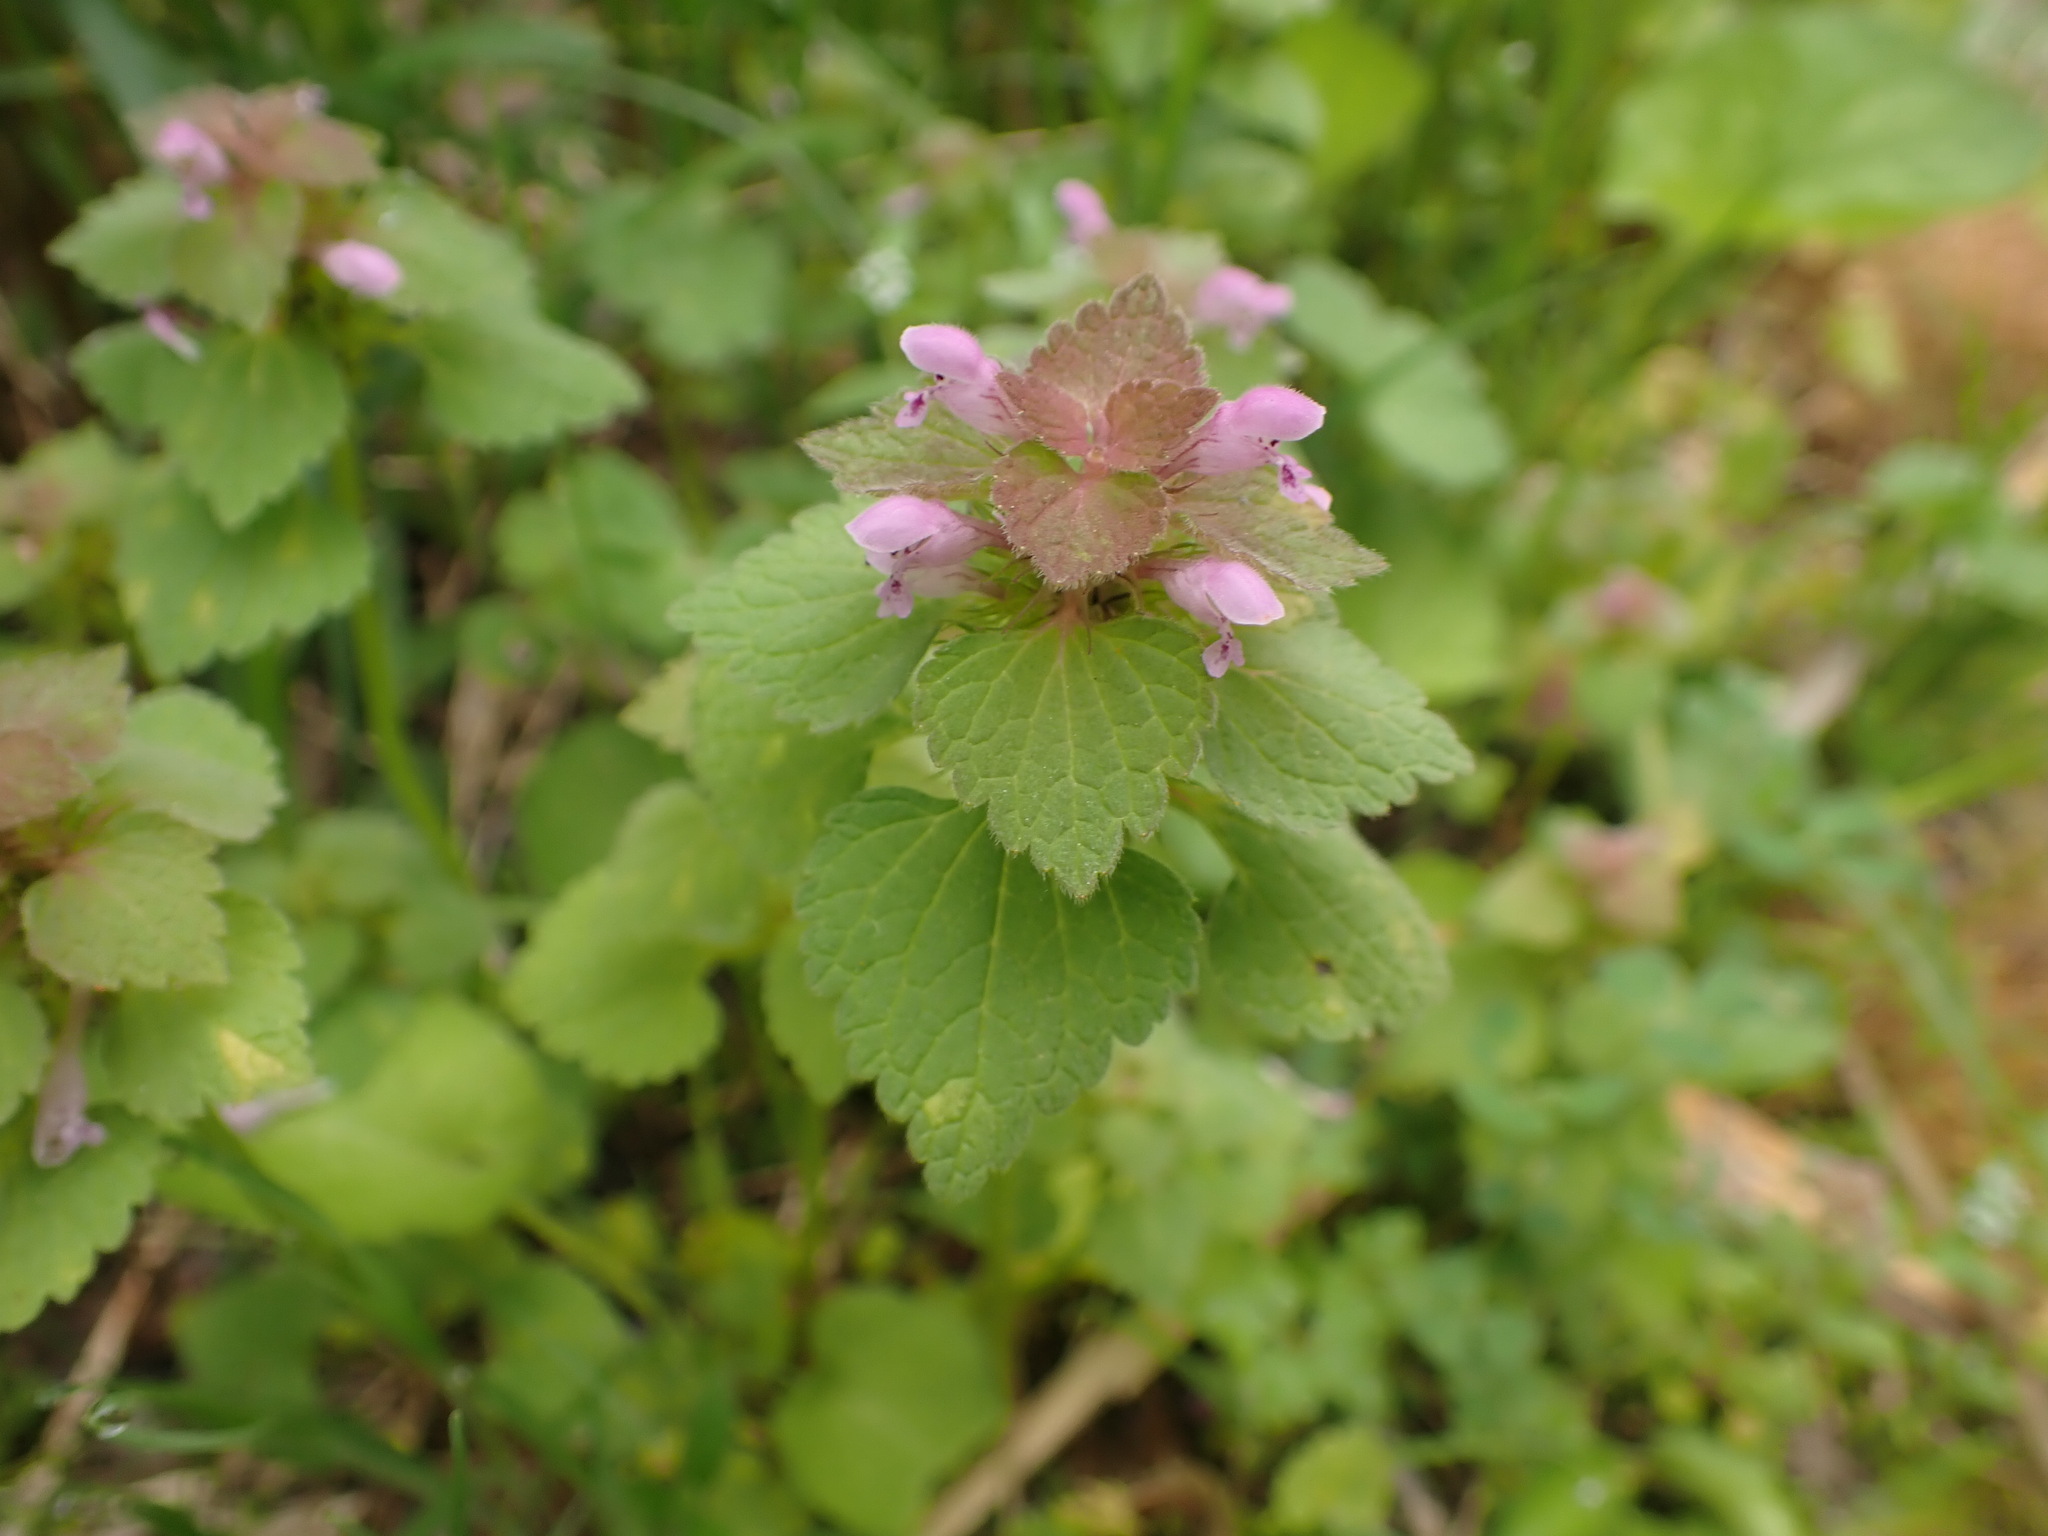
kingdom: Plantae
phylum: Tracheophyta
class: Magnoliopsida
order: Lamiales
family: Lamiaceae
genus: Lamium
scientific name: Lamium purpureum
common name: Red dead-nettle
